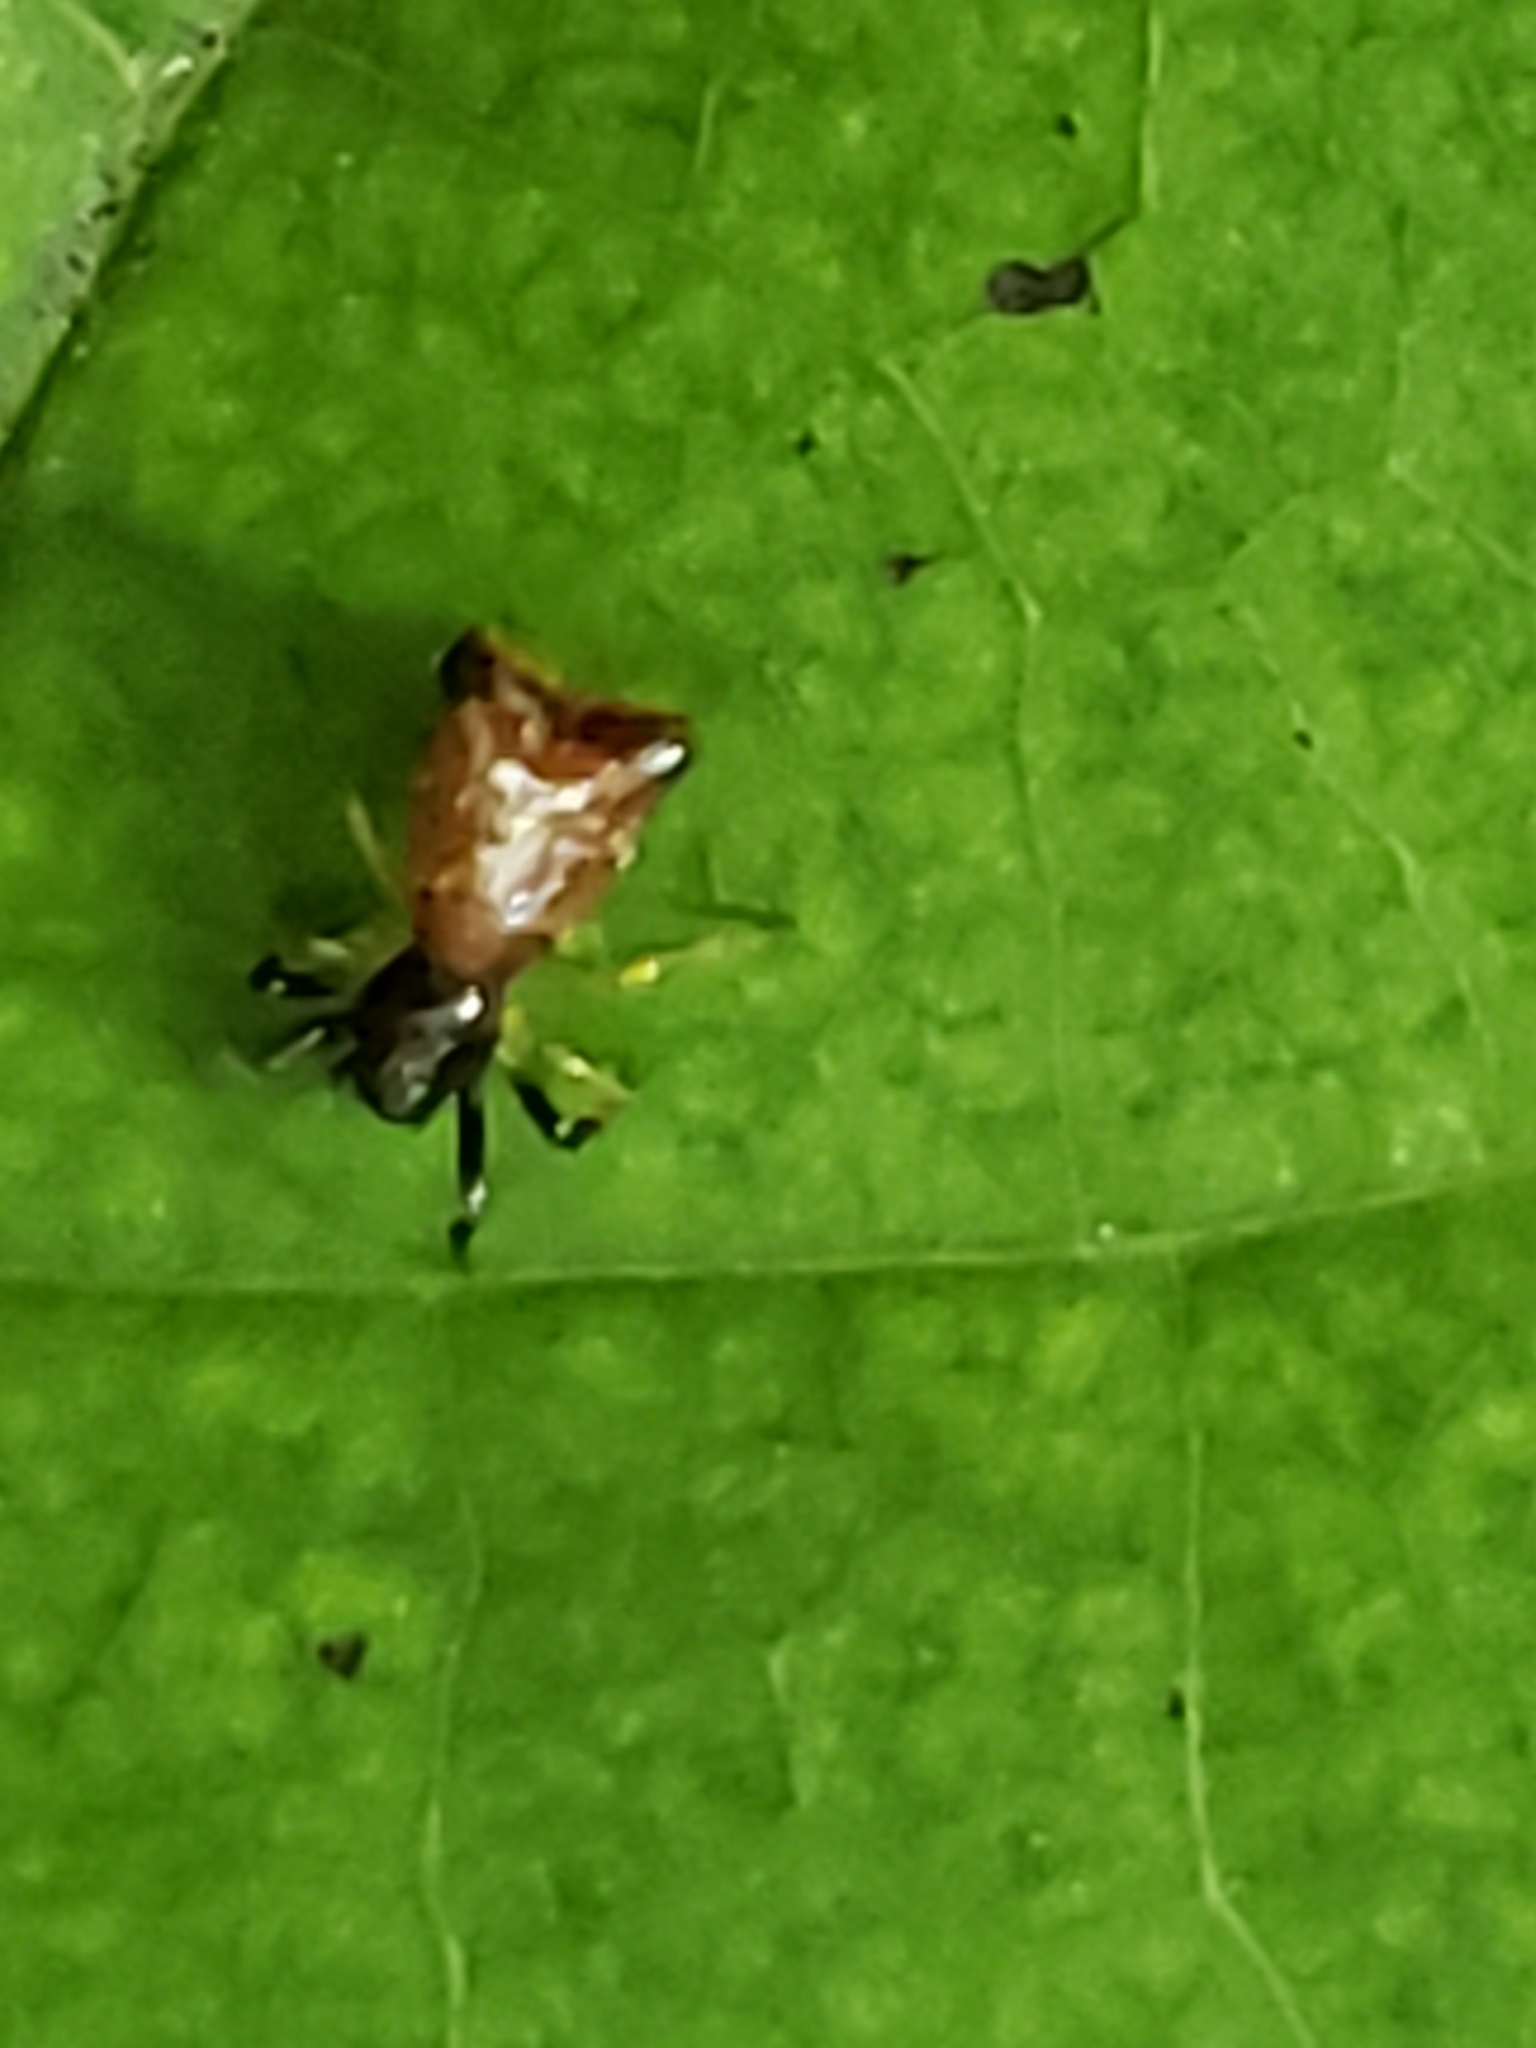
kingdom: Animalia
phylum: Arthropoda
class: Arachnida
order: Araneae
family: Araneidae
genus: Micrathena
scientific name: Micrathena sagittata
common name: Orb weavers
